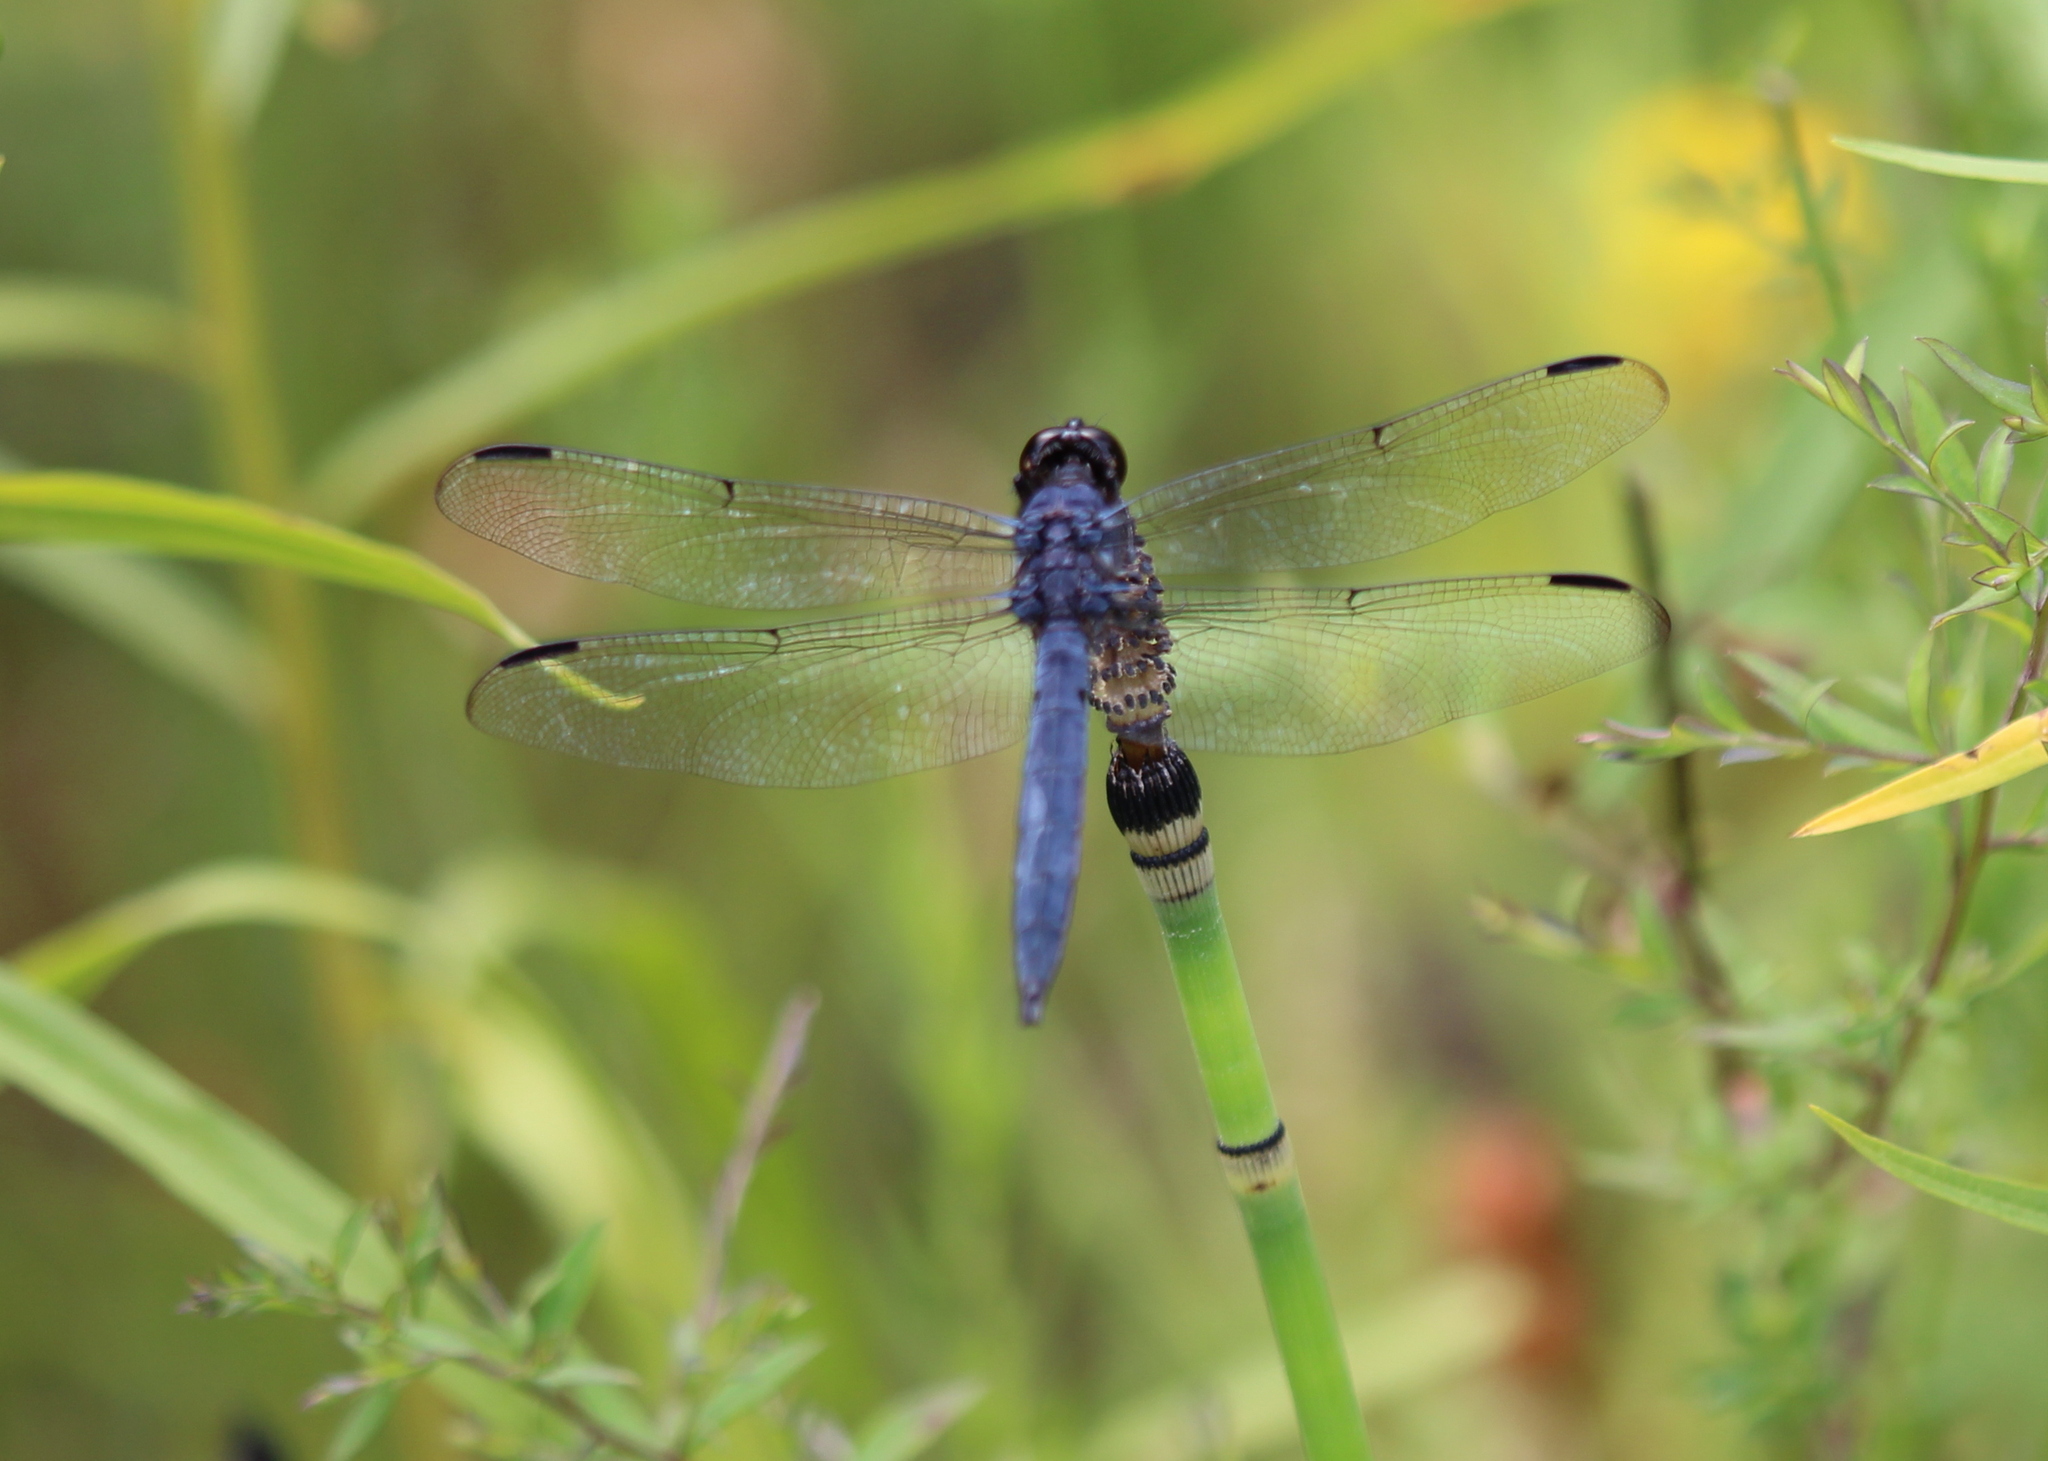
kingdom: Animalia
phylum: Arthropoda
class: Insecta
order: Odonata
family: Libellulidae
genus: Libellula
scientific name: Libellula incesta
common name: Slaty skimmer
